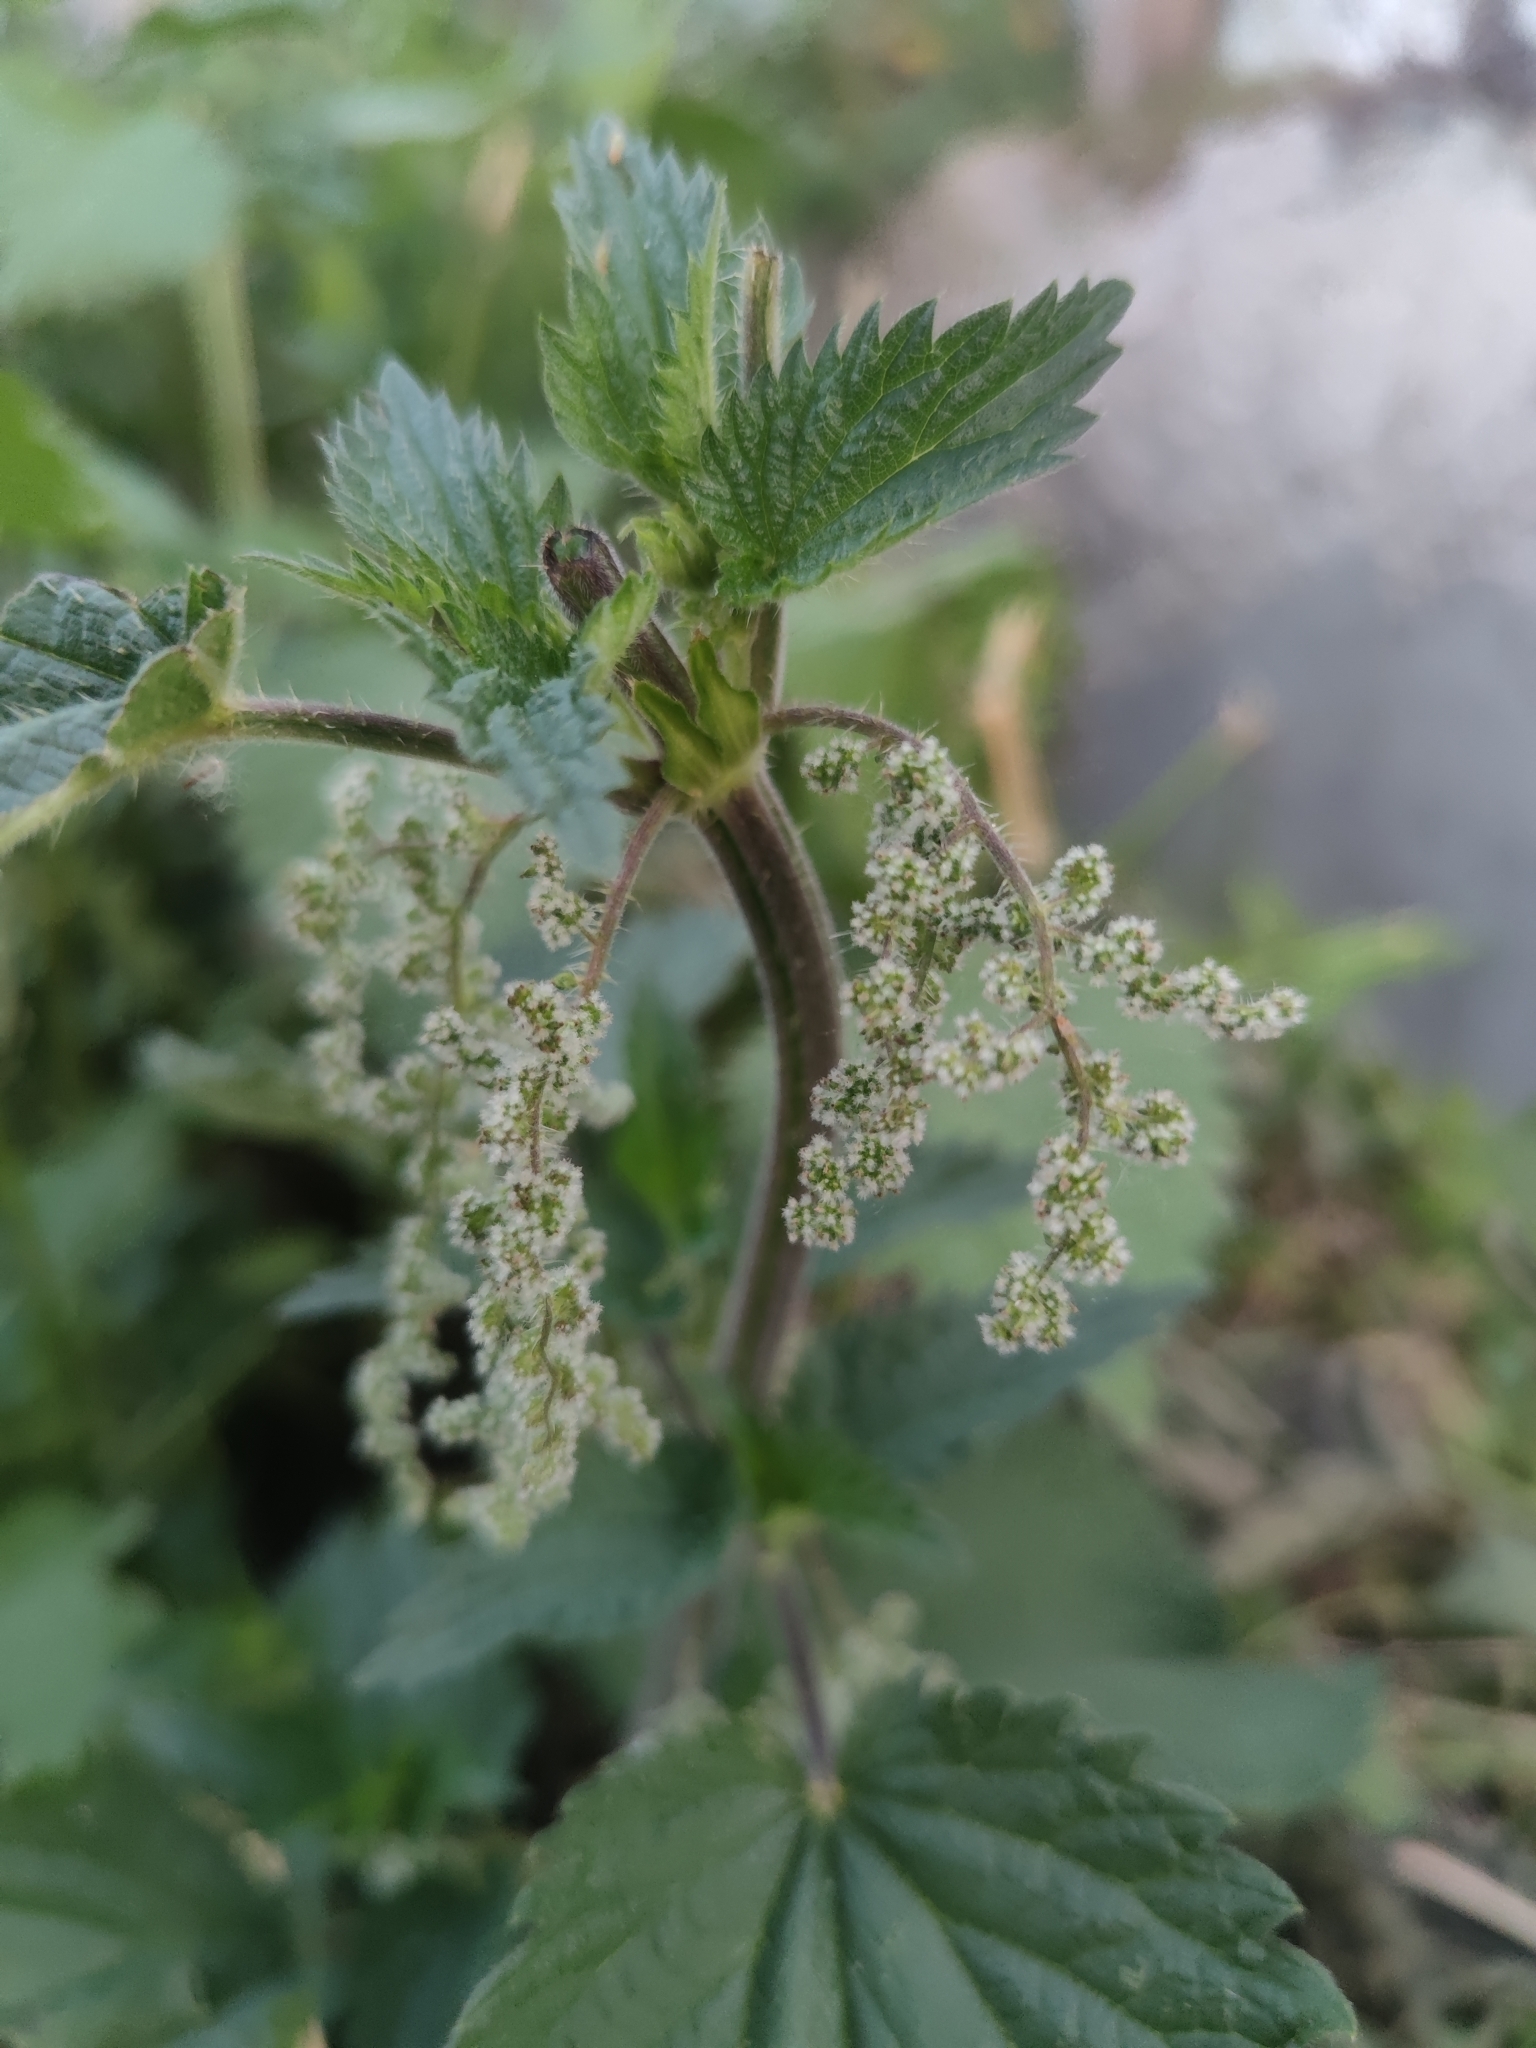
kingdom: Plantae
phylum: Tracheophyta
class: Magnoliopsida
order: Rosales
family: Urticaceae
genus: Urtica
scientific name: Urtica dioica
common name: Common nettle
